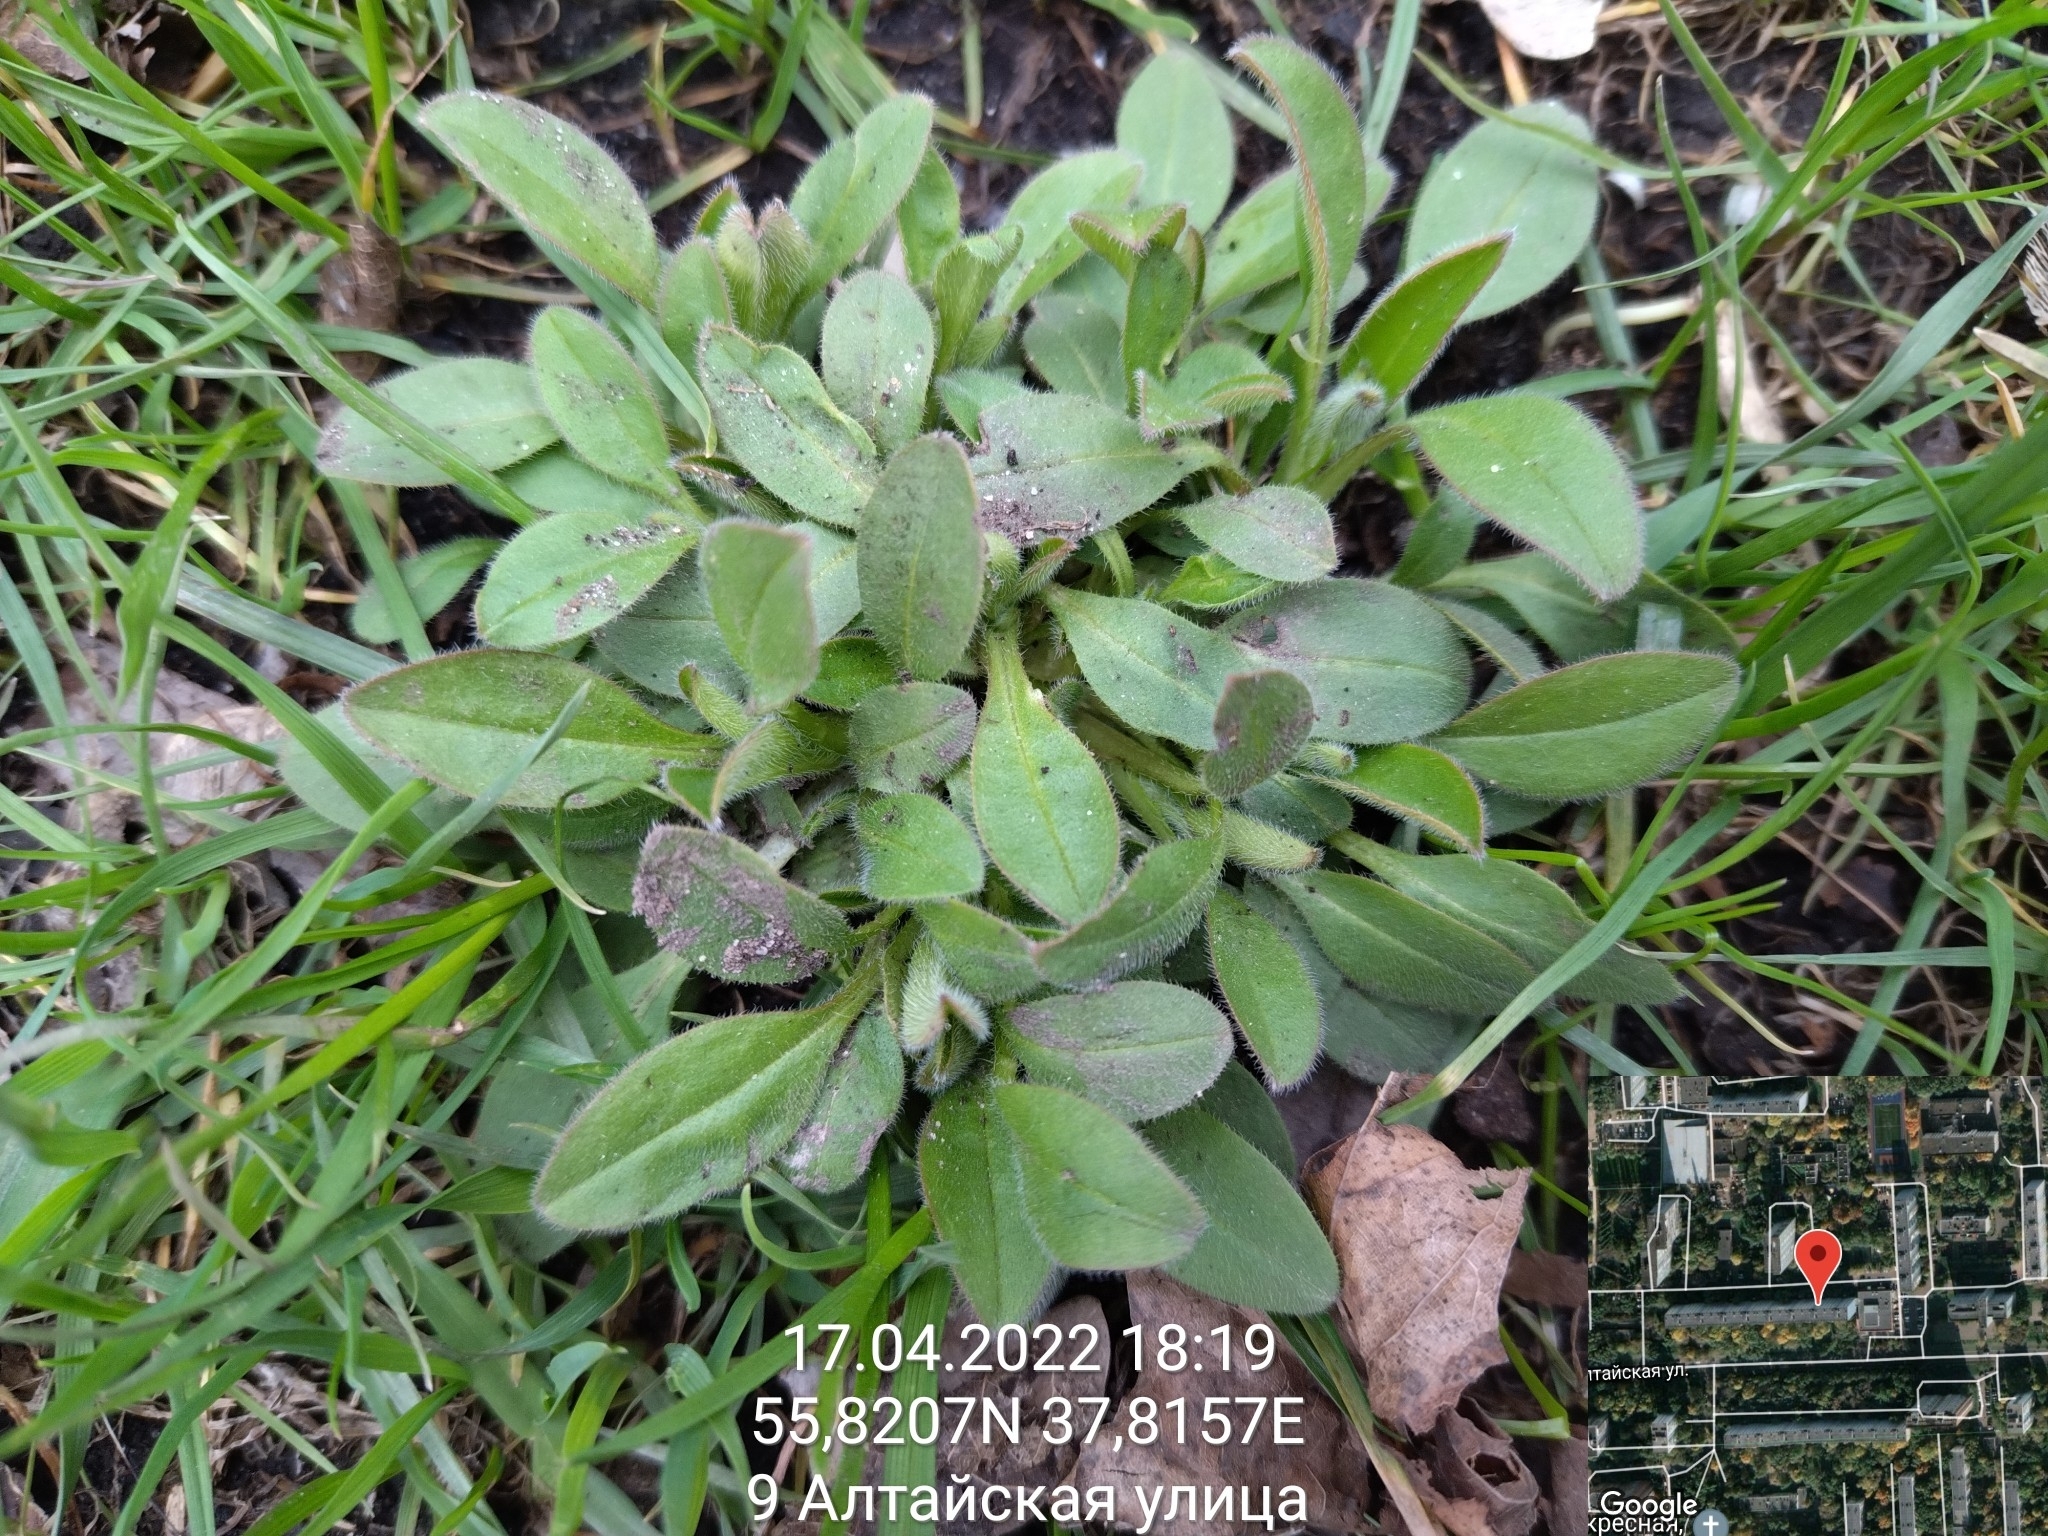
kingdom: Plantae
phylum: Tracheophyta
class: Magnoliopsida
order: Boraginales
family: Boraginaceae
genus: Myosotis
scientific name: Myosotis sparsiflora
